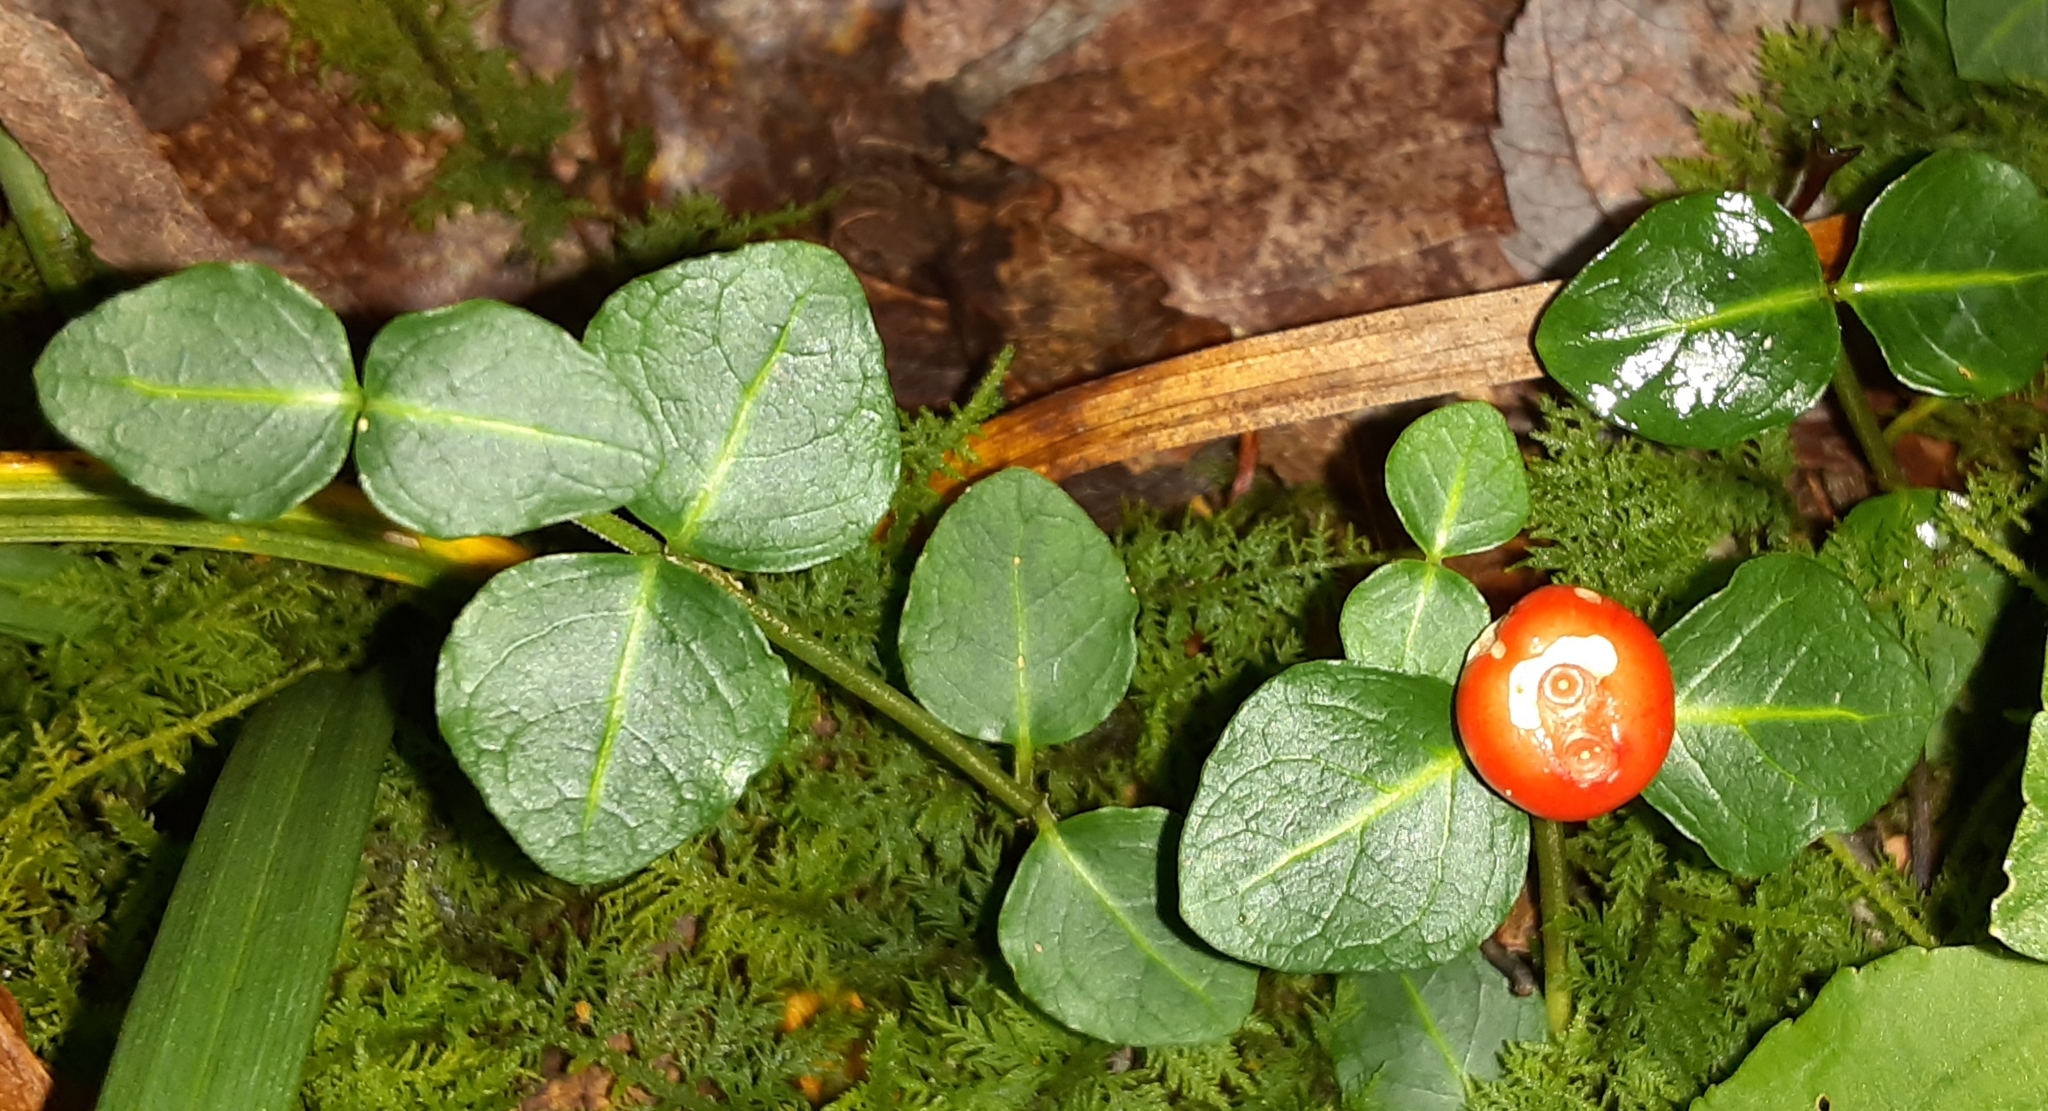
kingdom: Plantae
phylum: Tracheophyta
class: Magnoliopsida
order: Gentianales
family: Rubiaceae
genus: Mitchella
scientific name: Mitchella repens
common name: Partridge-berry
